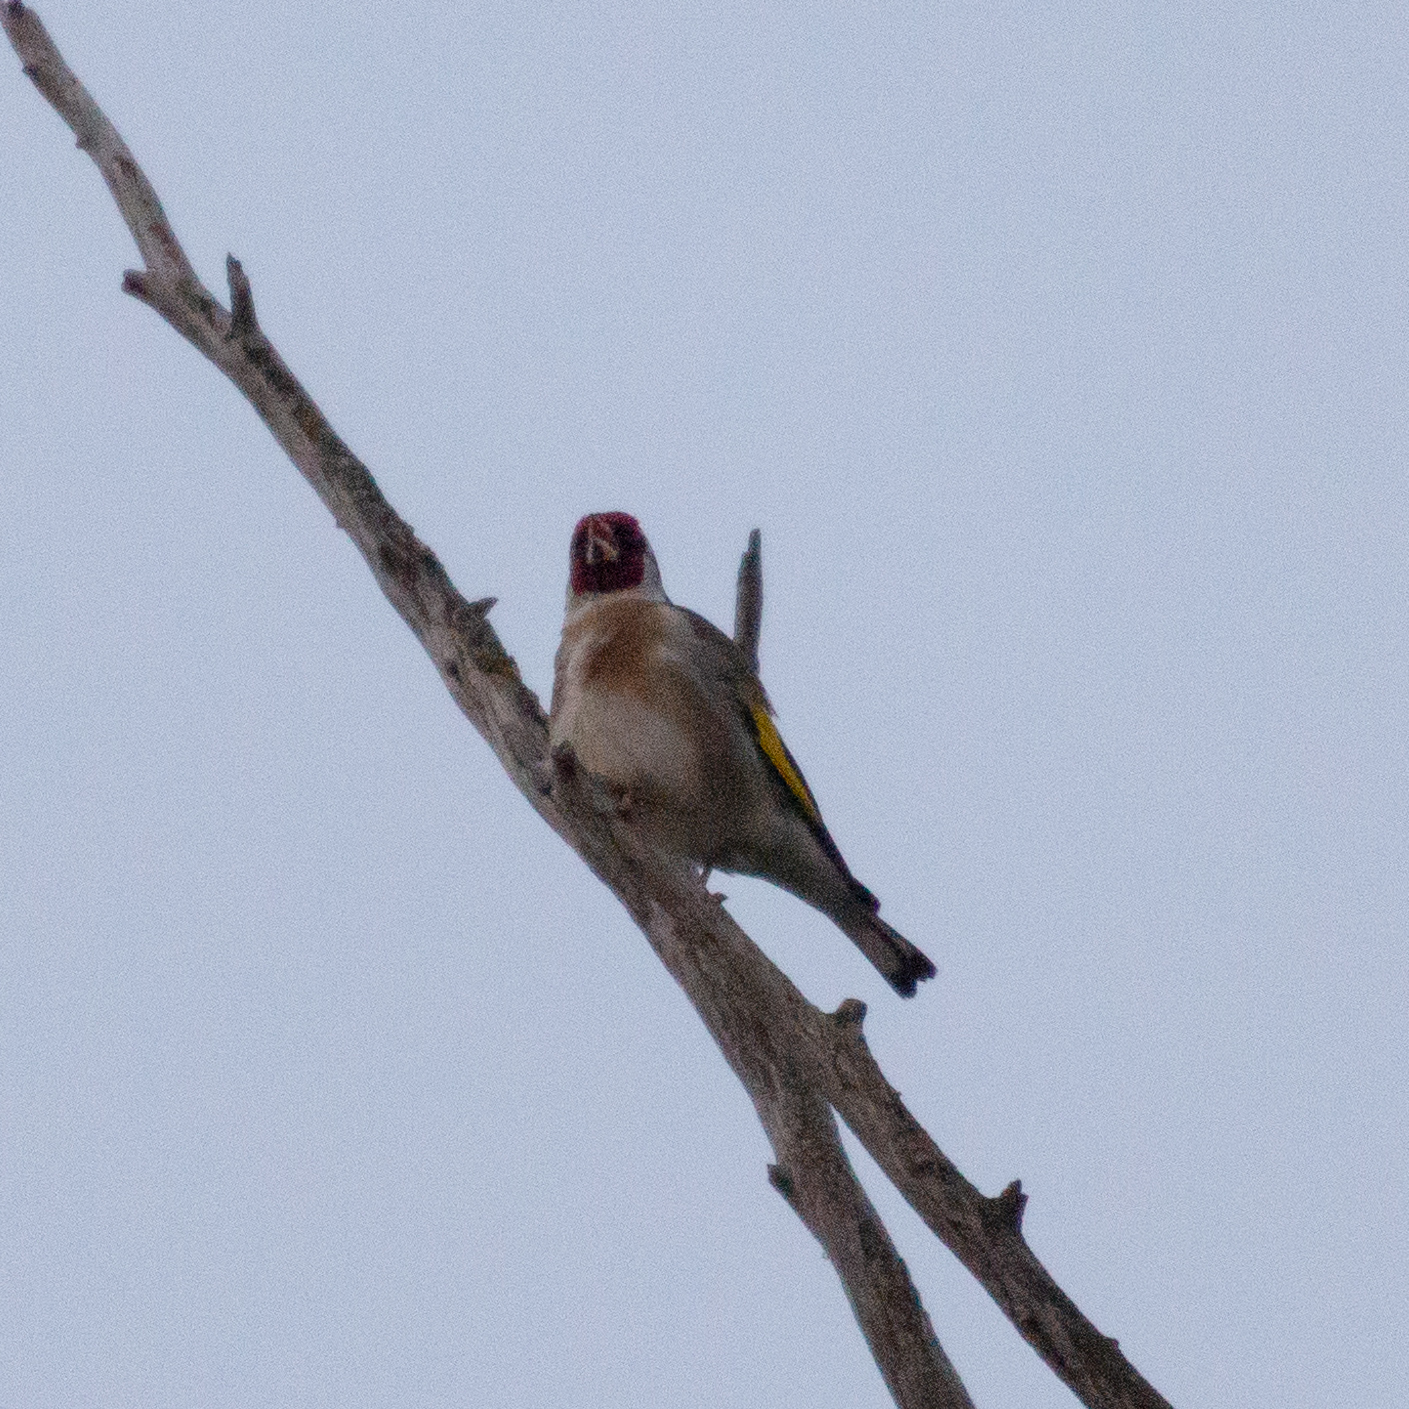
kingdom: Animalia
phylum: Chordata
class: Aves
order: Passeriformes
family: Fringillidae
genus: Carduelis
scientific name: Carduelis carduelis
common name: European goldfinch
